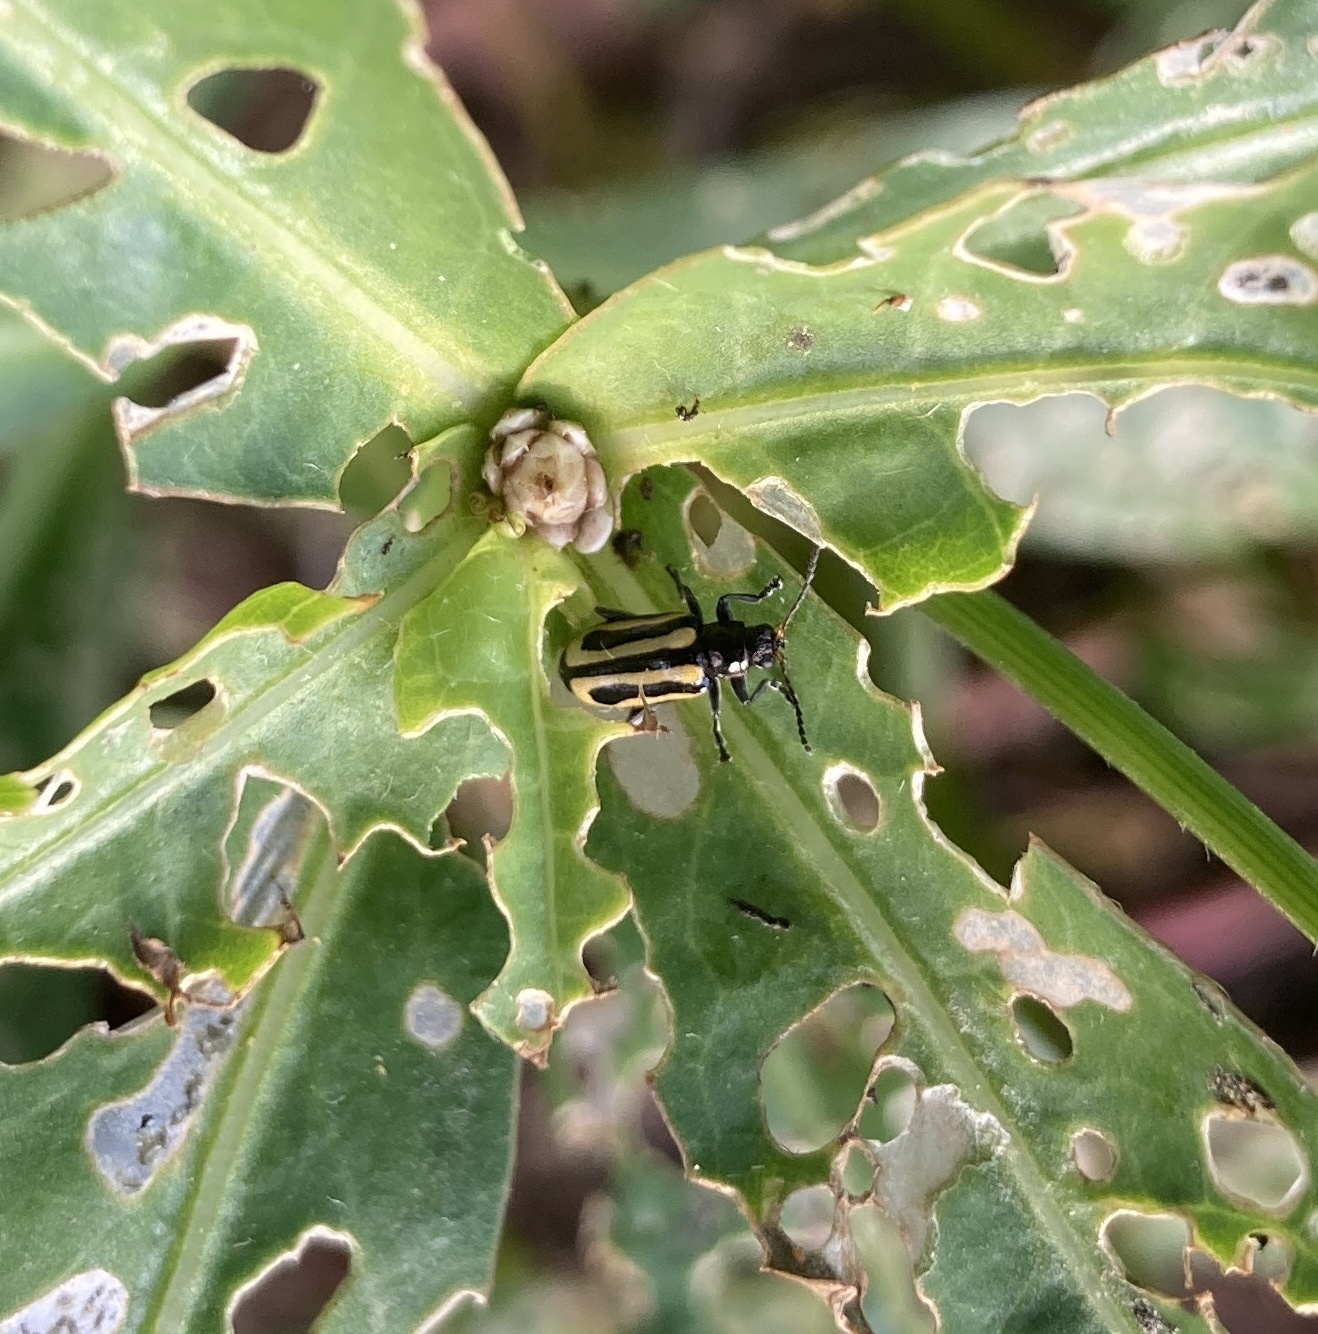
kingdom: Animalia
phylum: Arthropoda
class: Insecta
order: Coleoptera
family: Chrysomelidae
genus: Agasicles
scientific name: Agasicles hygrophila
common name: Alligatorweed flea beetle
